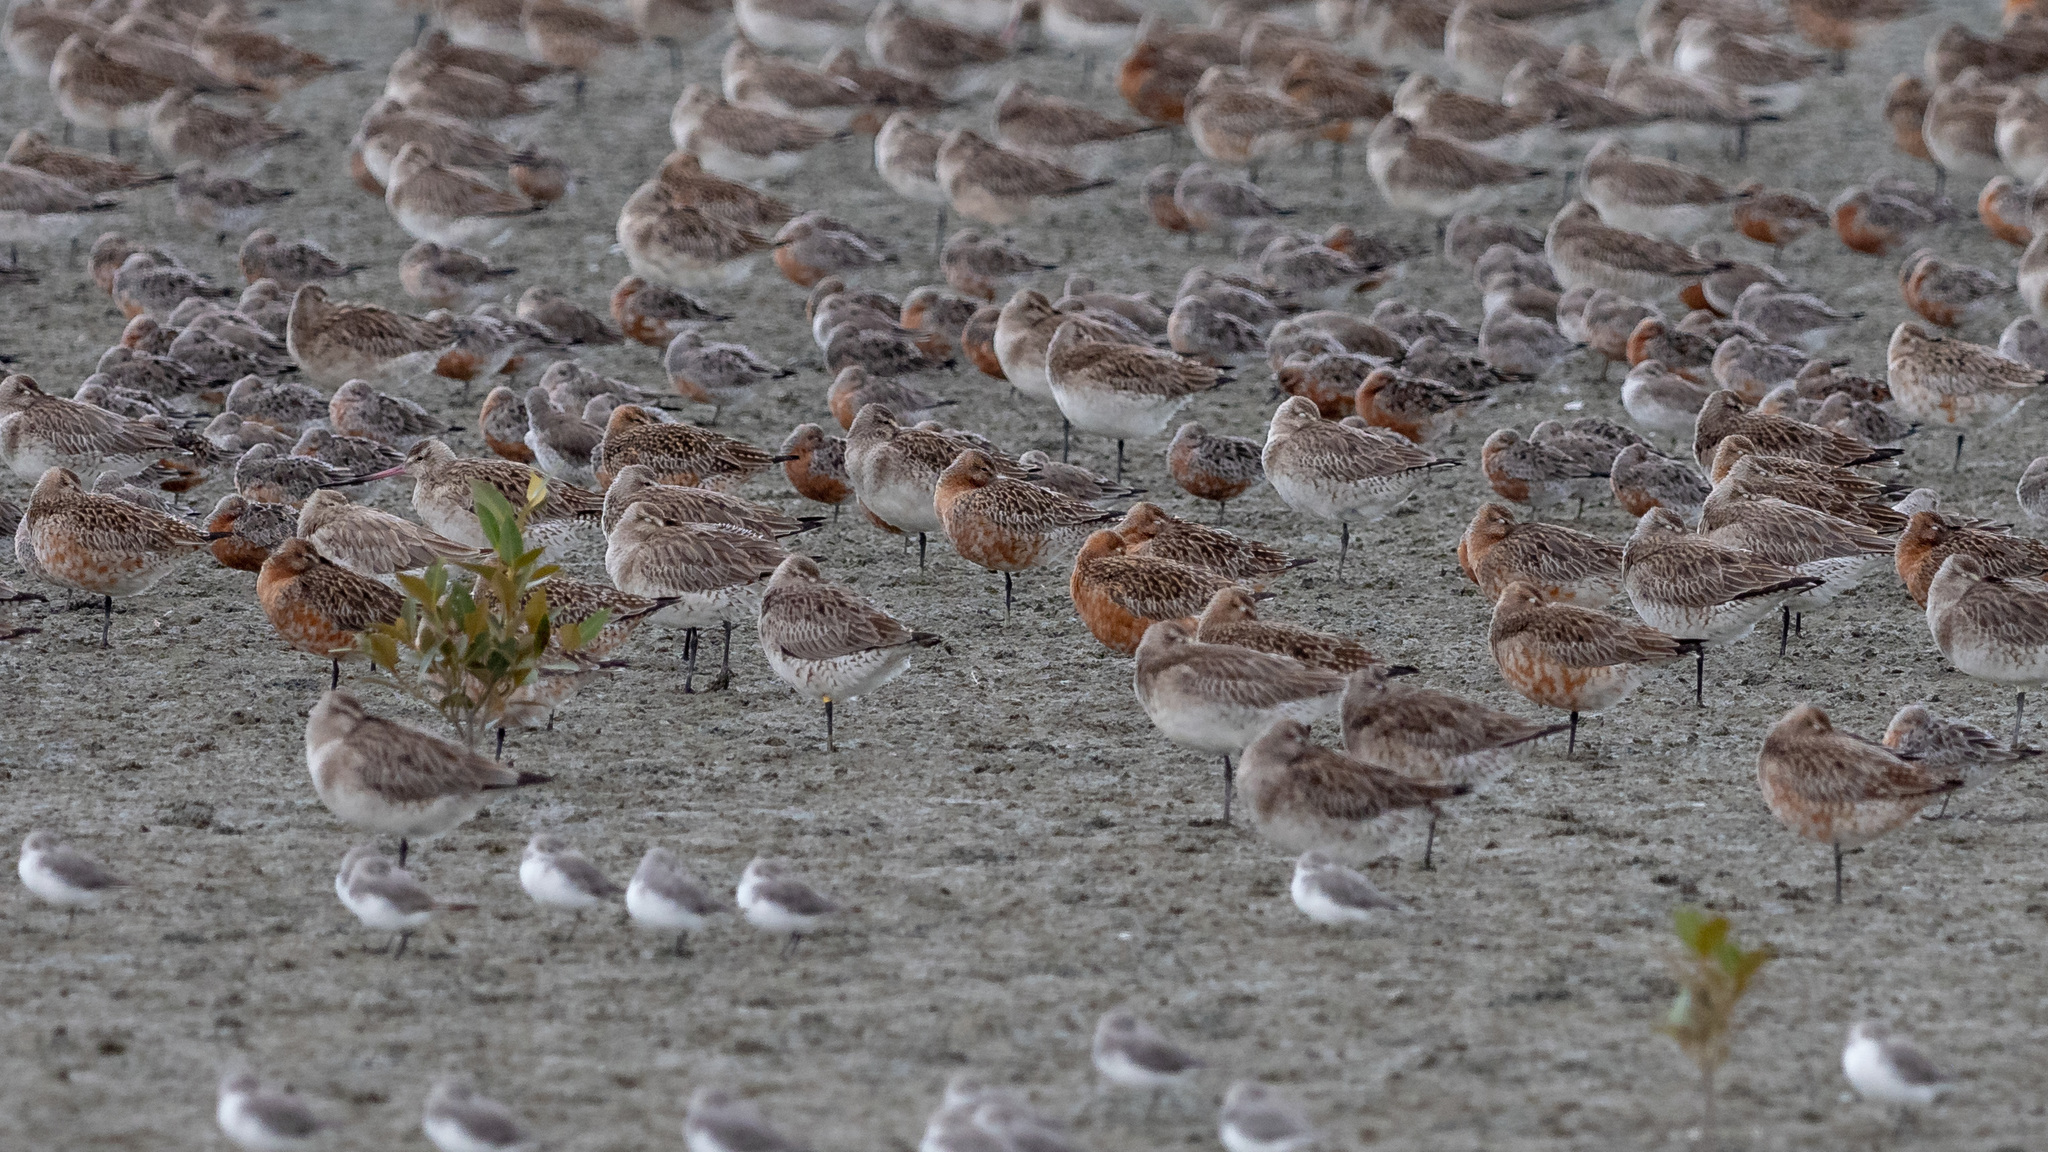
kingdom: Animalia
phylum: Chordata
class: Aves
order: Charadriiformes
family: Scolopacidae
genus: Calidris
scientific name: Calidris canutus
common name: Red knot
